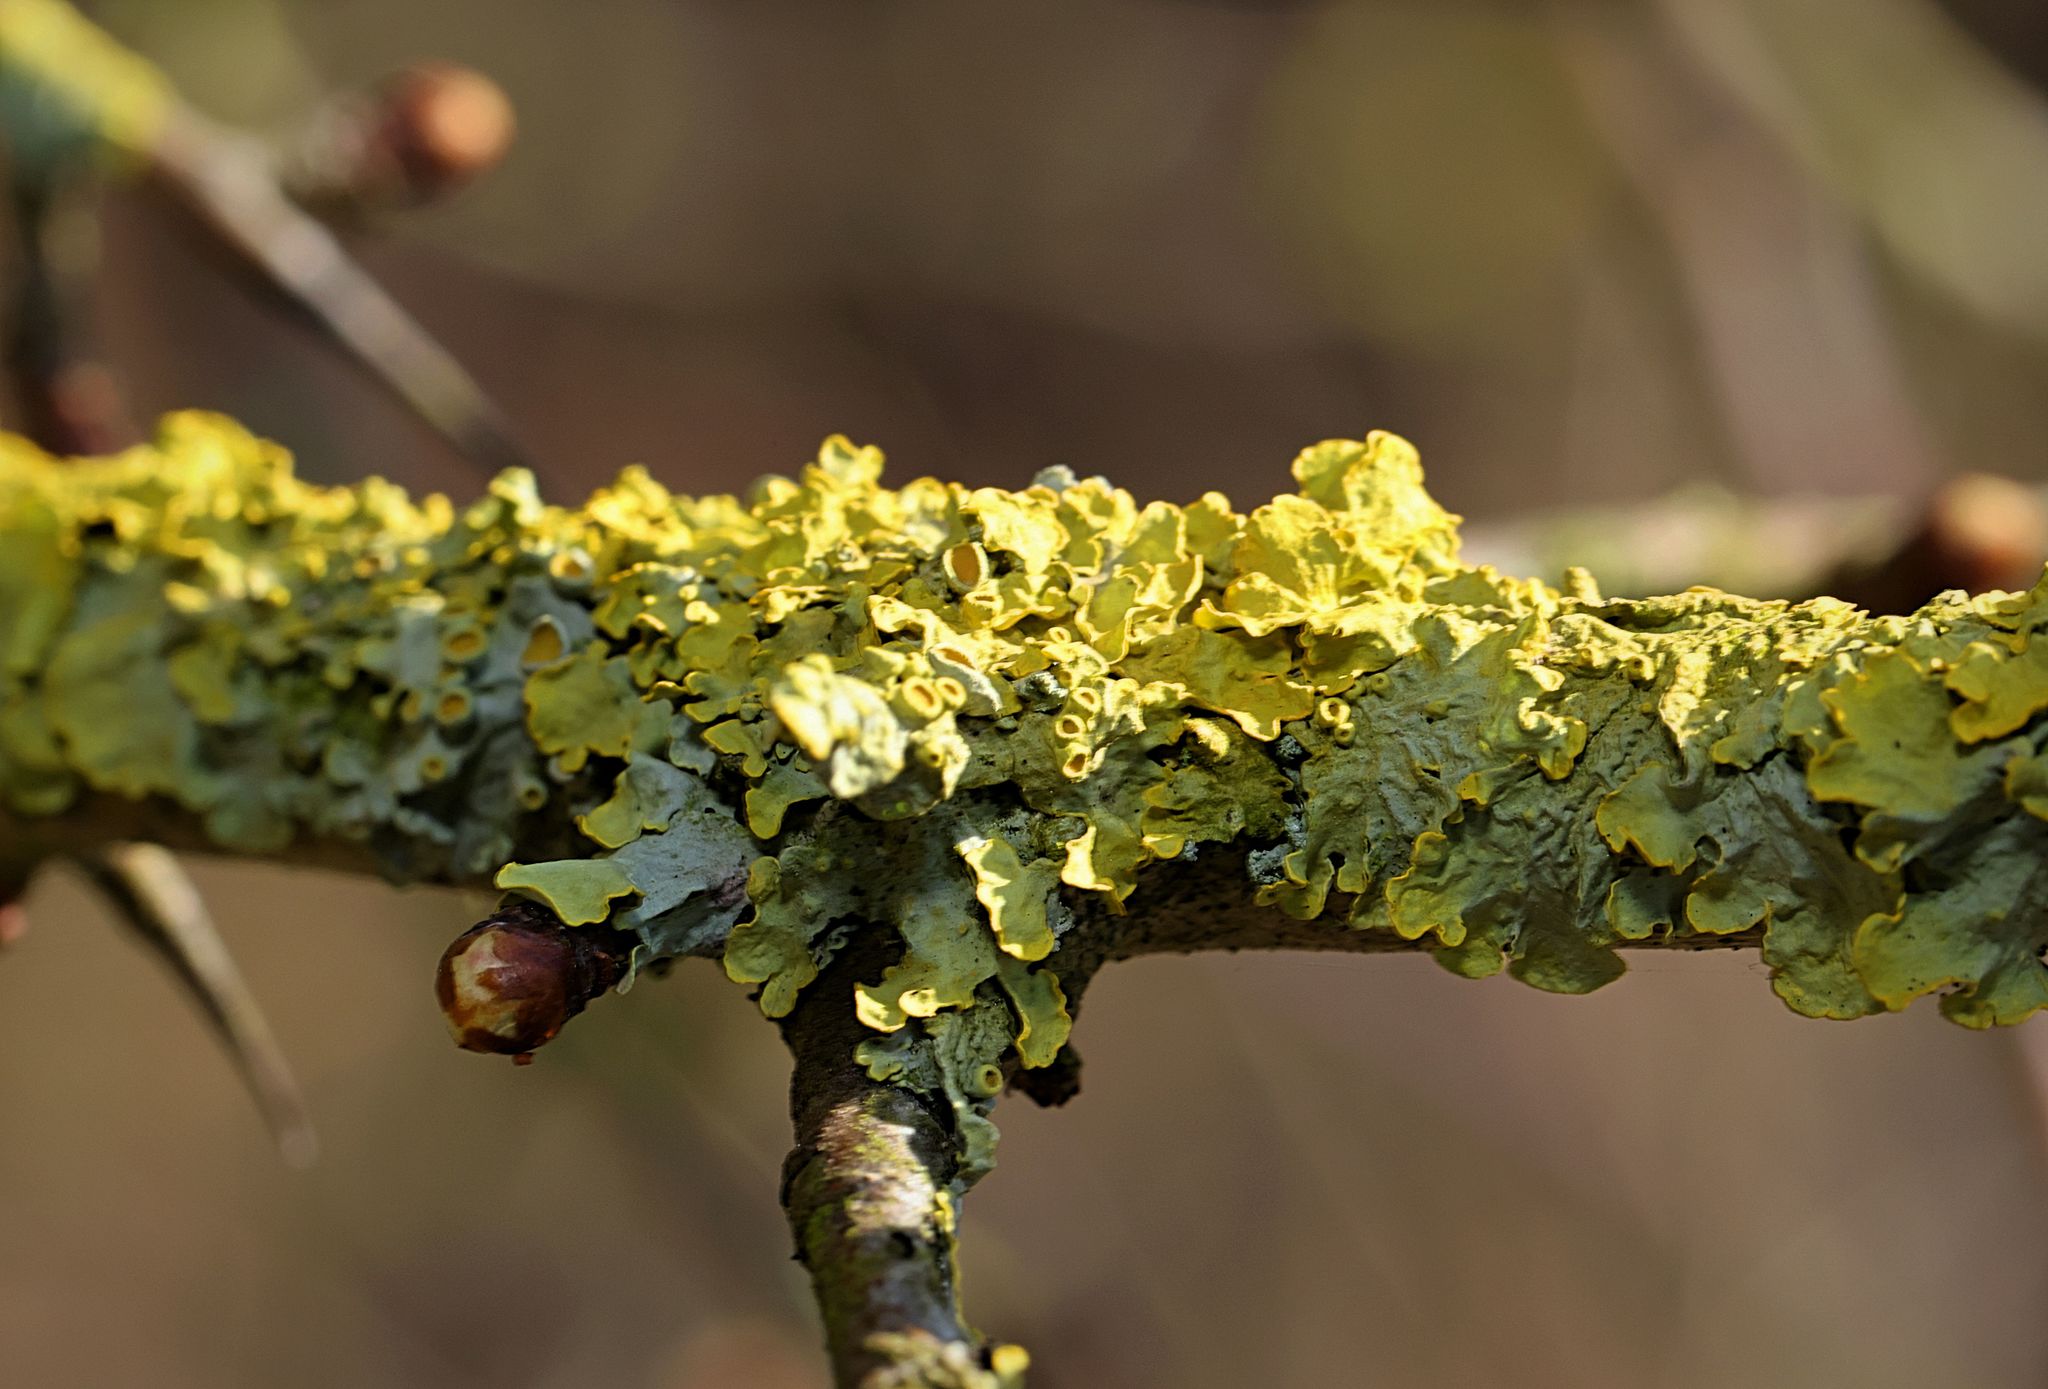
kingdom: Fungi
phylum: Ascomycota
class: Lecanoromycetes
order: Teloschistales
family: Teloschistaceae
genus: Xanthoria
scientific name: Xanthoria parietina
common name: Common orange lichen
